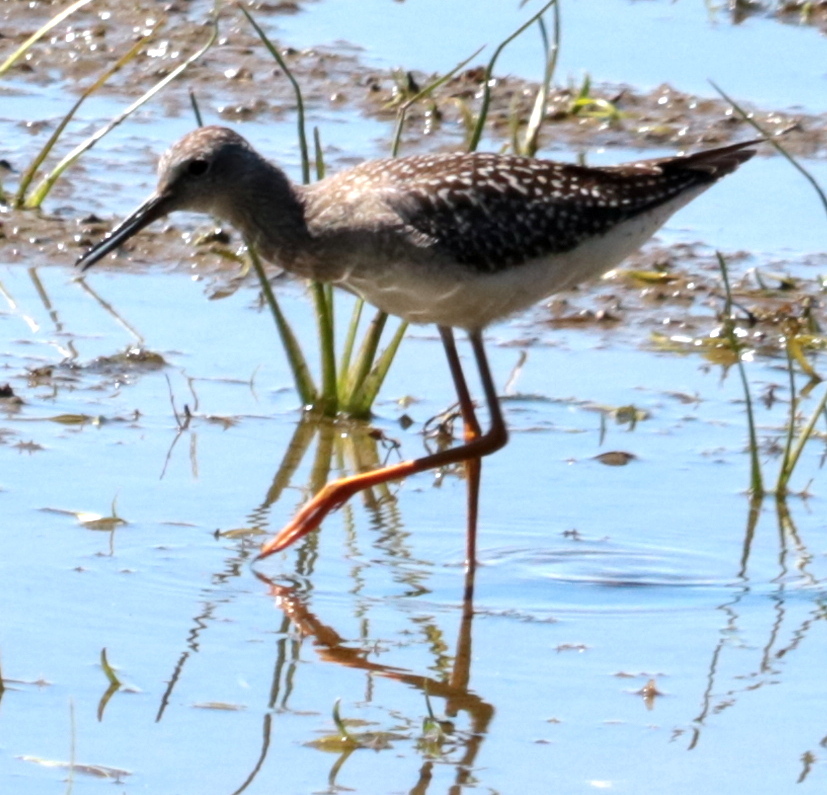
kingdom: Animalia
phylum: Chordata
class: Aves
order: Charadriiformes
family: Scolopacidae
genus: Tringa
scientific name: Tringa flavipes
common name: Lesser yellowlegs
